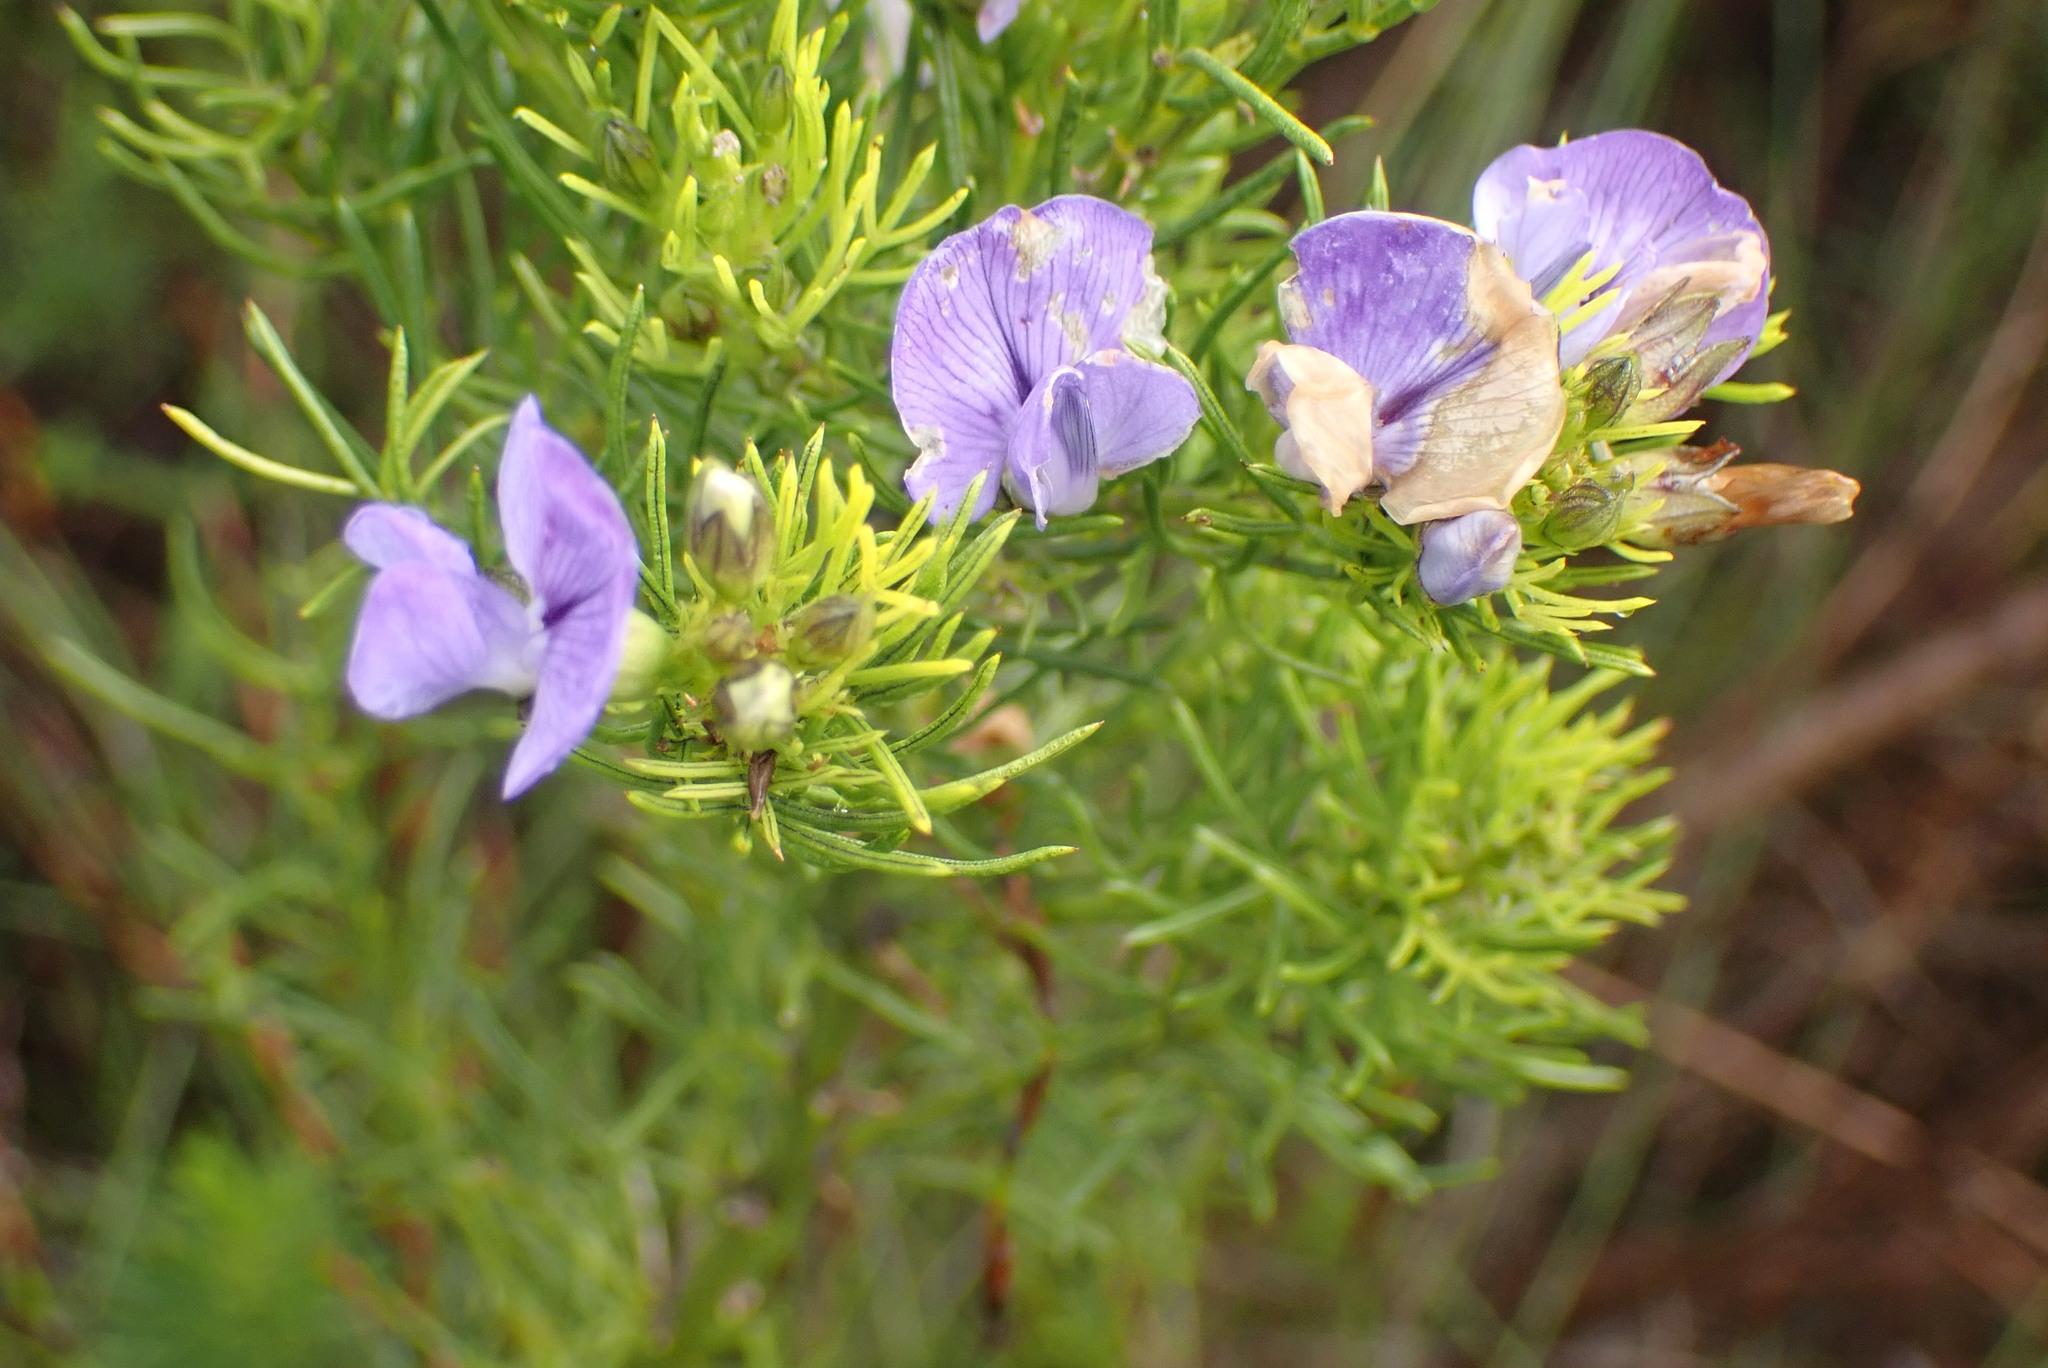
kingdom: Plantae
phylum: Tracheophyta
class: Magnoliopsida
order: Fabales
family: Fabaceae
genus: Psoralea
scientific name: Psoralea speciosa
